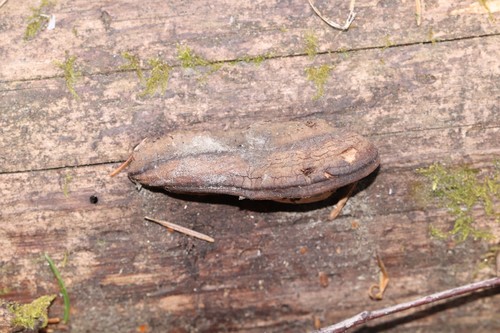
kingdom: Fungi
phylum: Basidiomycota
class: Agaricomycetes
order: Polyporales
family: Fomitopsidaceae
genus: Rhodofomes
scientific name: Rhodofomes roseus
